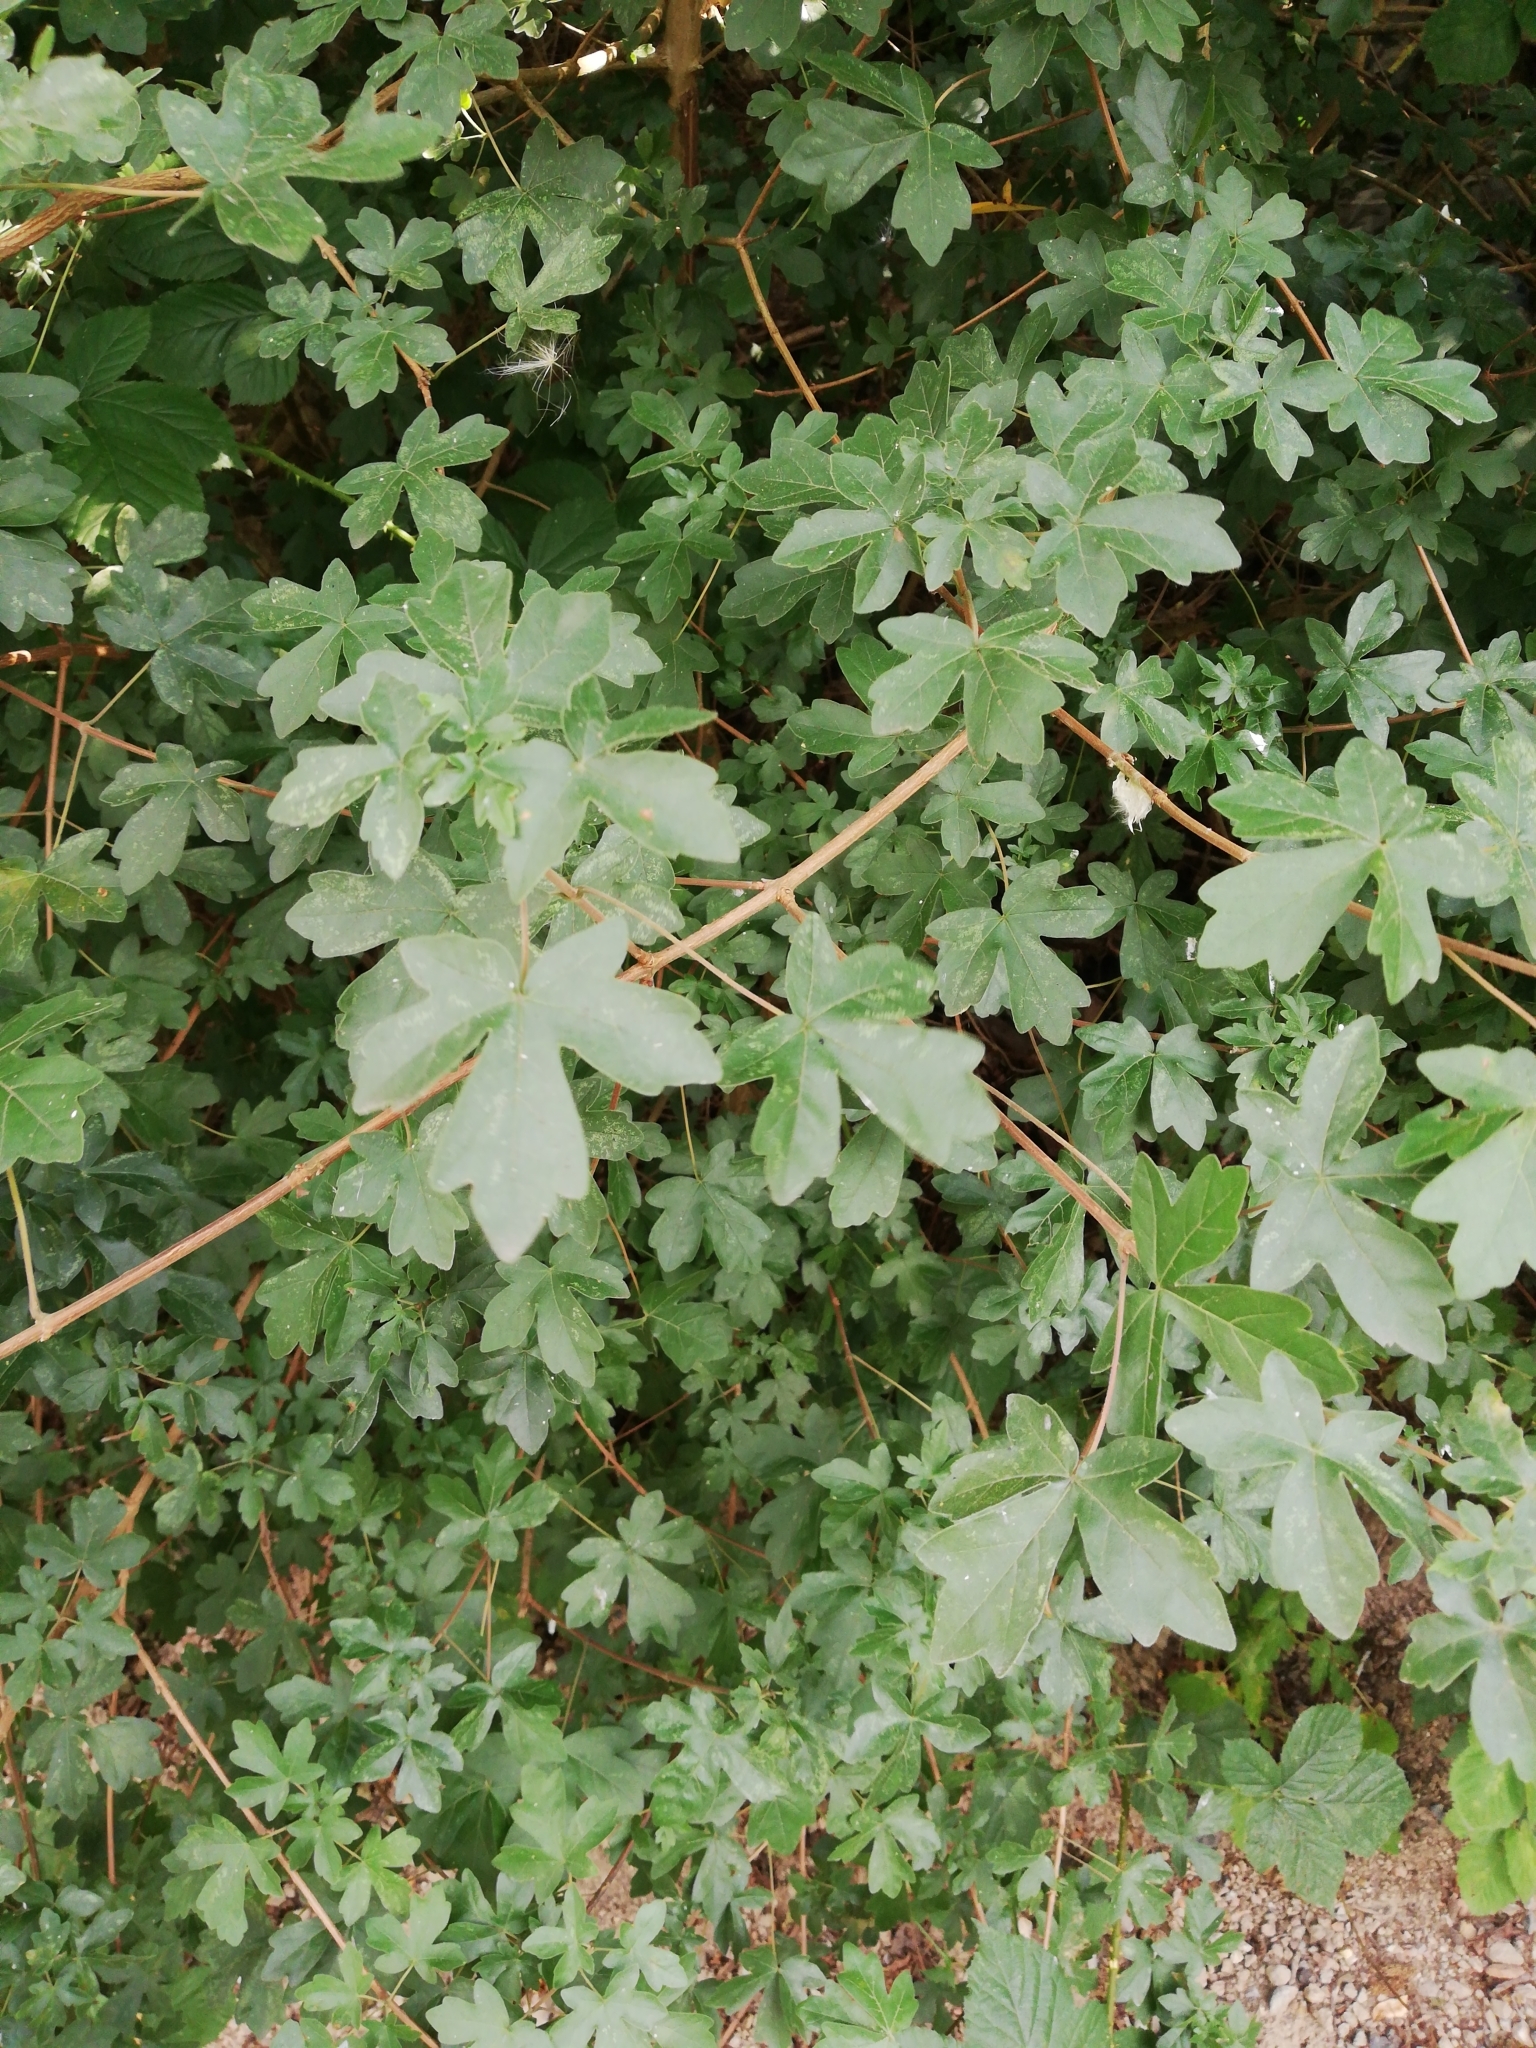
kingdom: Plantae
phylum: Tracheophyta
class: Magnoliopsida
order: Sapindales
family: Sapindaceae
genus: Acer
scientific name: Acer campestre
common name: Field maple
